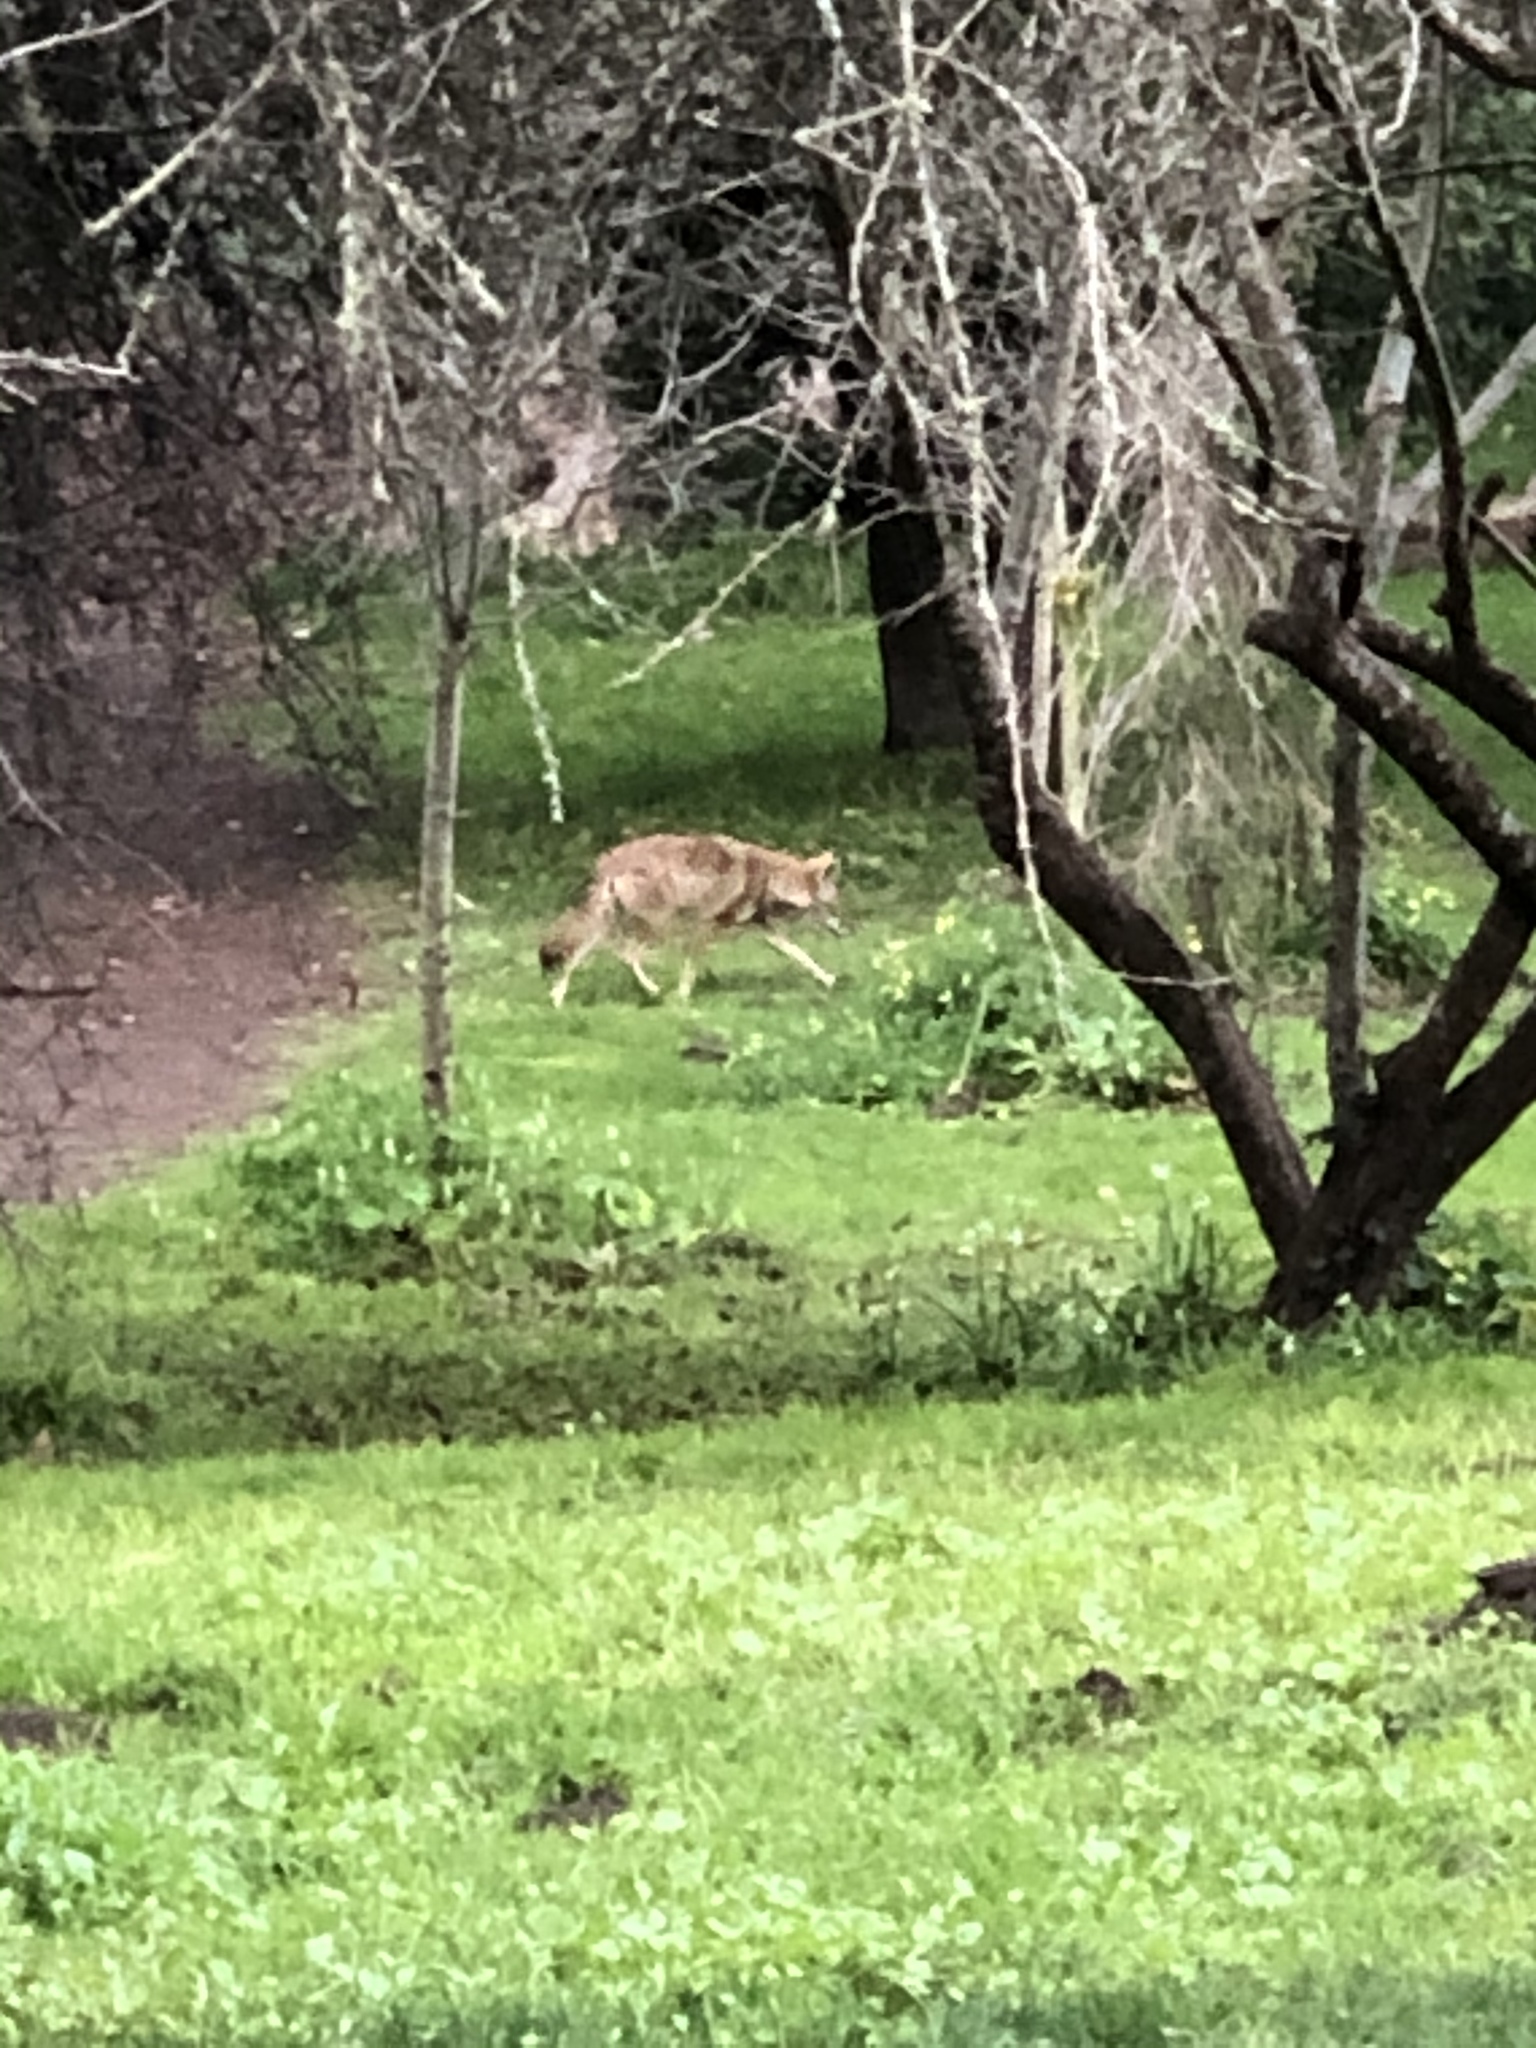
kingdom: Animalia
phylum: Chordata
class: Mammalia
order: Carnivora
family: Canidae
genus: Canis
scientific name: Canis latrans
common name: Coyote
